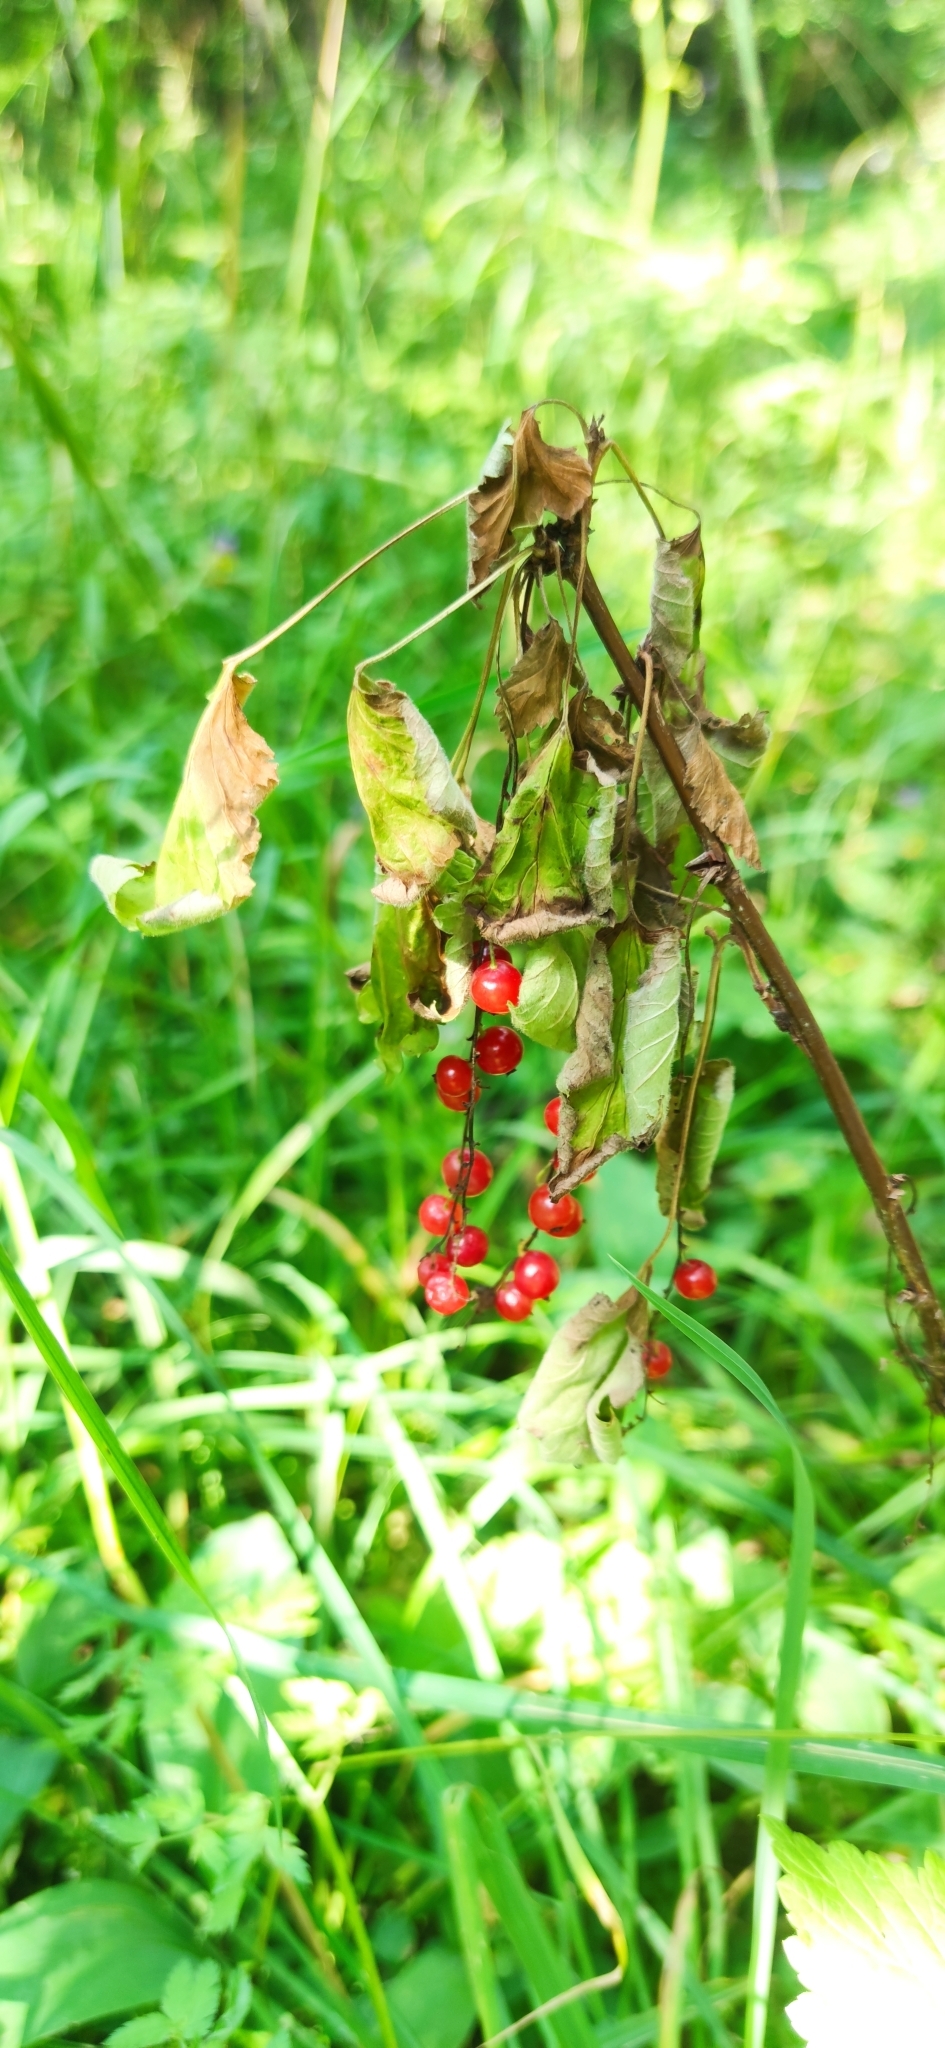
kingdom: Plantae
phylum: Tracheophyta
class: Magnoliopsida
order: Saxifragales
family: Grossulariaceae
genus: Ribes
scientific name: Ribes rubrum
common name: Red currant
